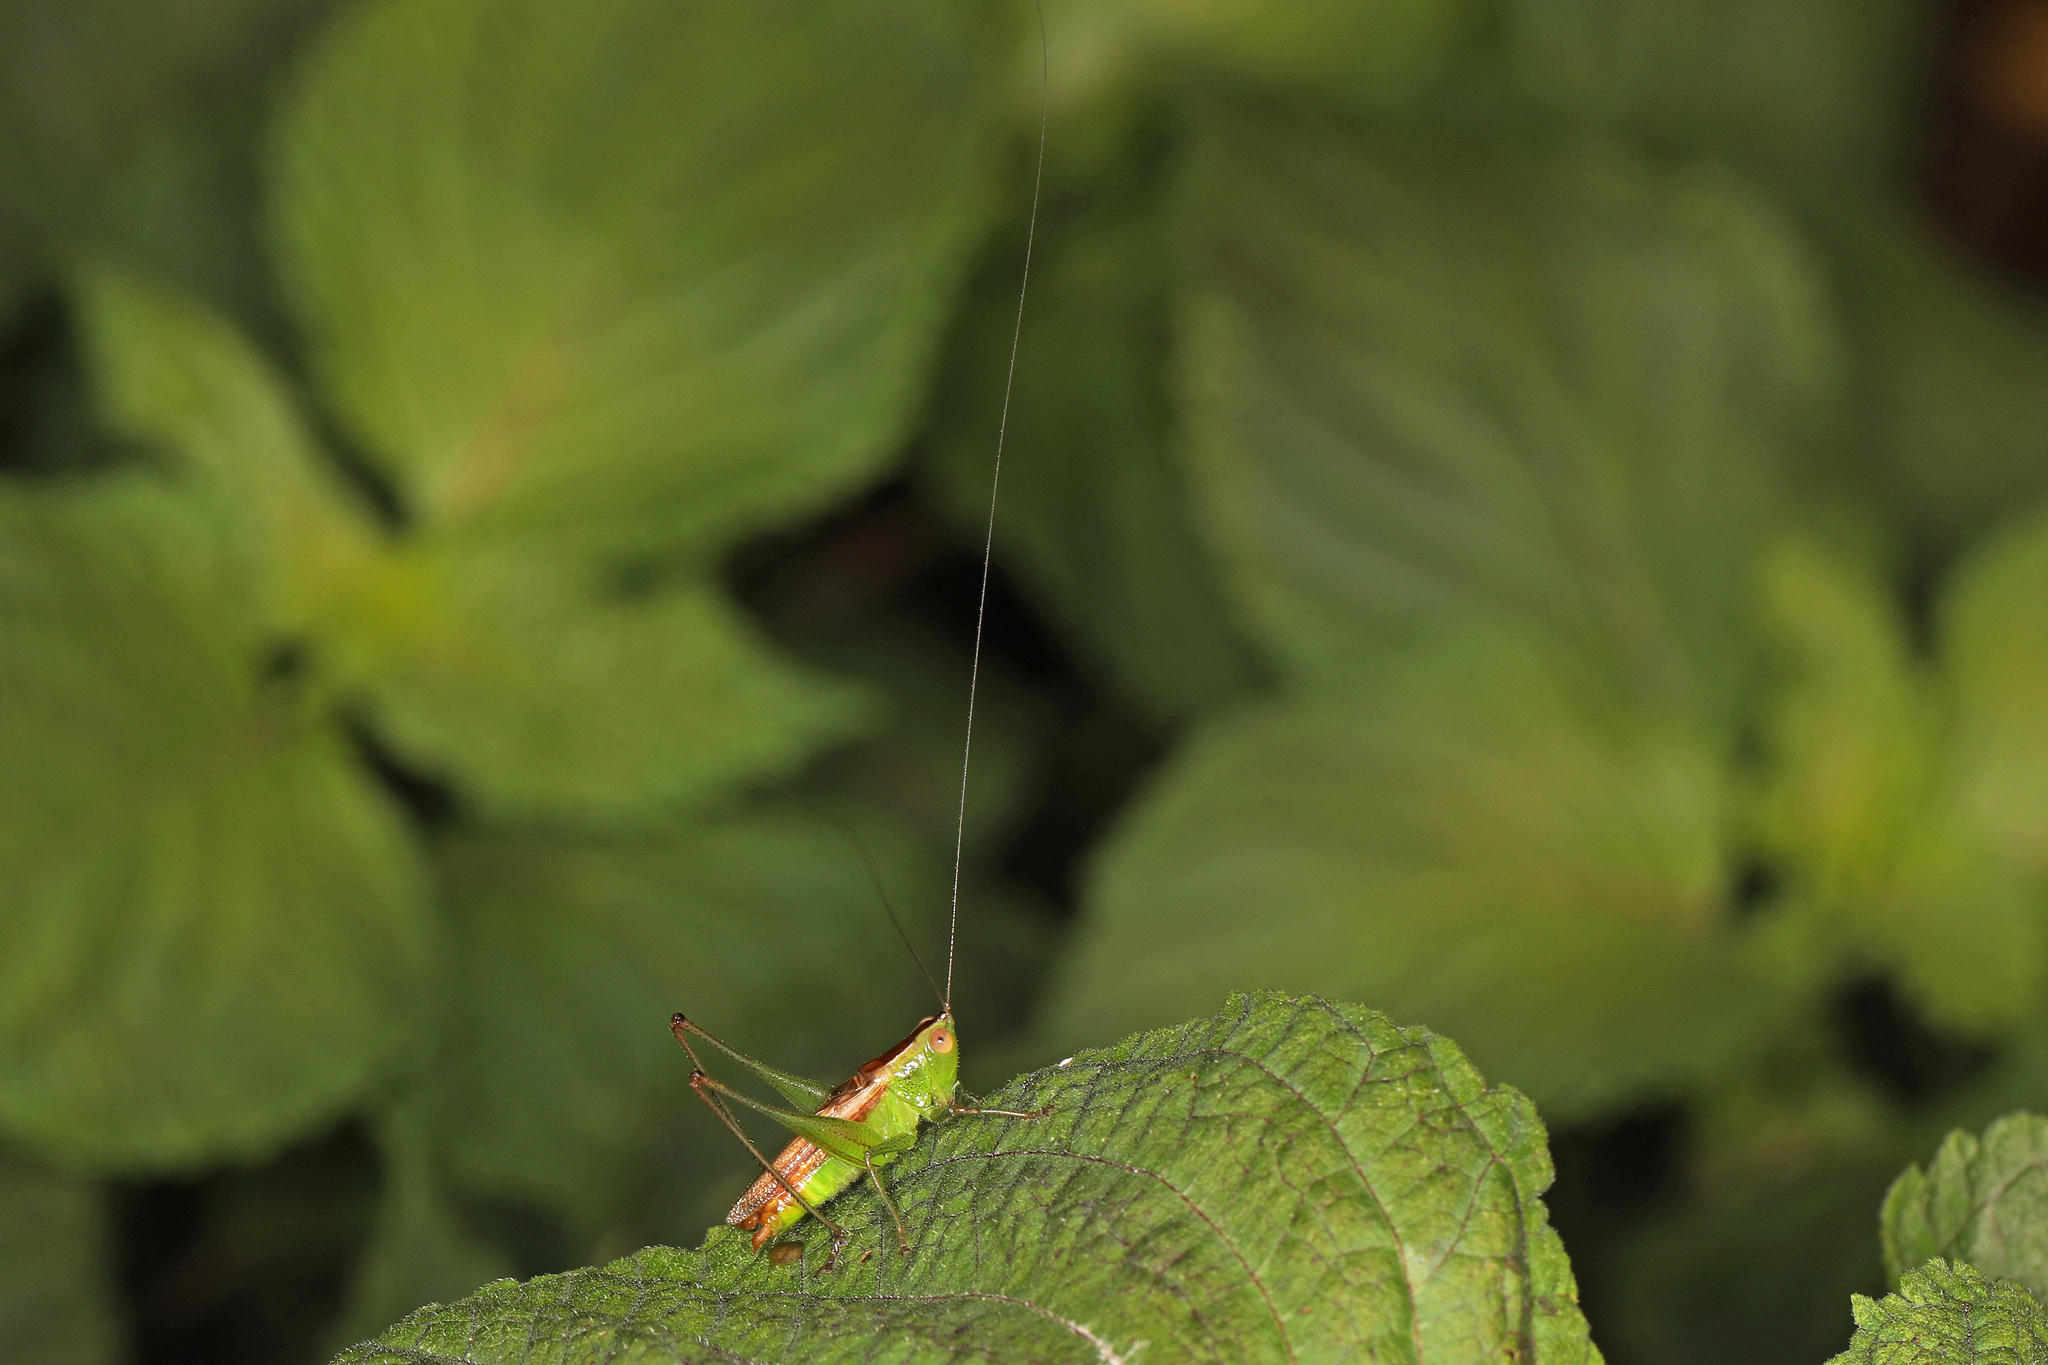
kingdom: Animalia
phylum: Arthropoda
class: Insecta
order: Orthoptera
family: Tettigoniidae
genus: Conocephalus
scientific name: Conocephalus brevipennis
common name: Short-winged meadow katydid
